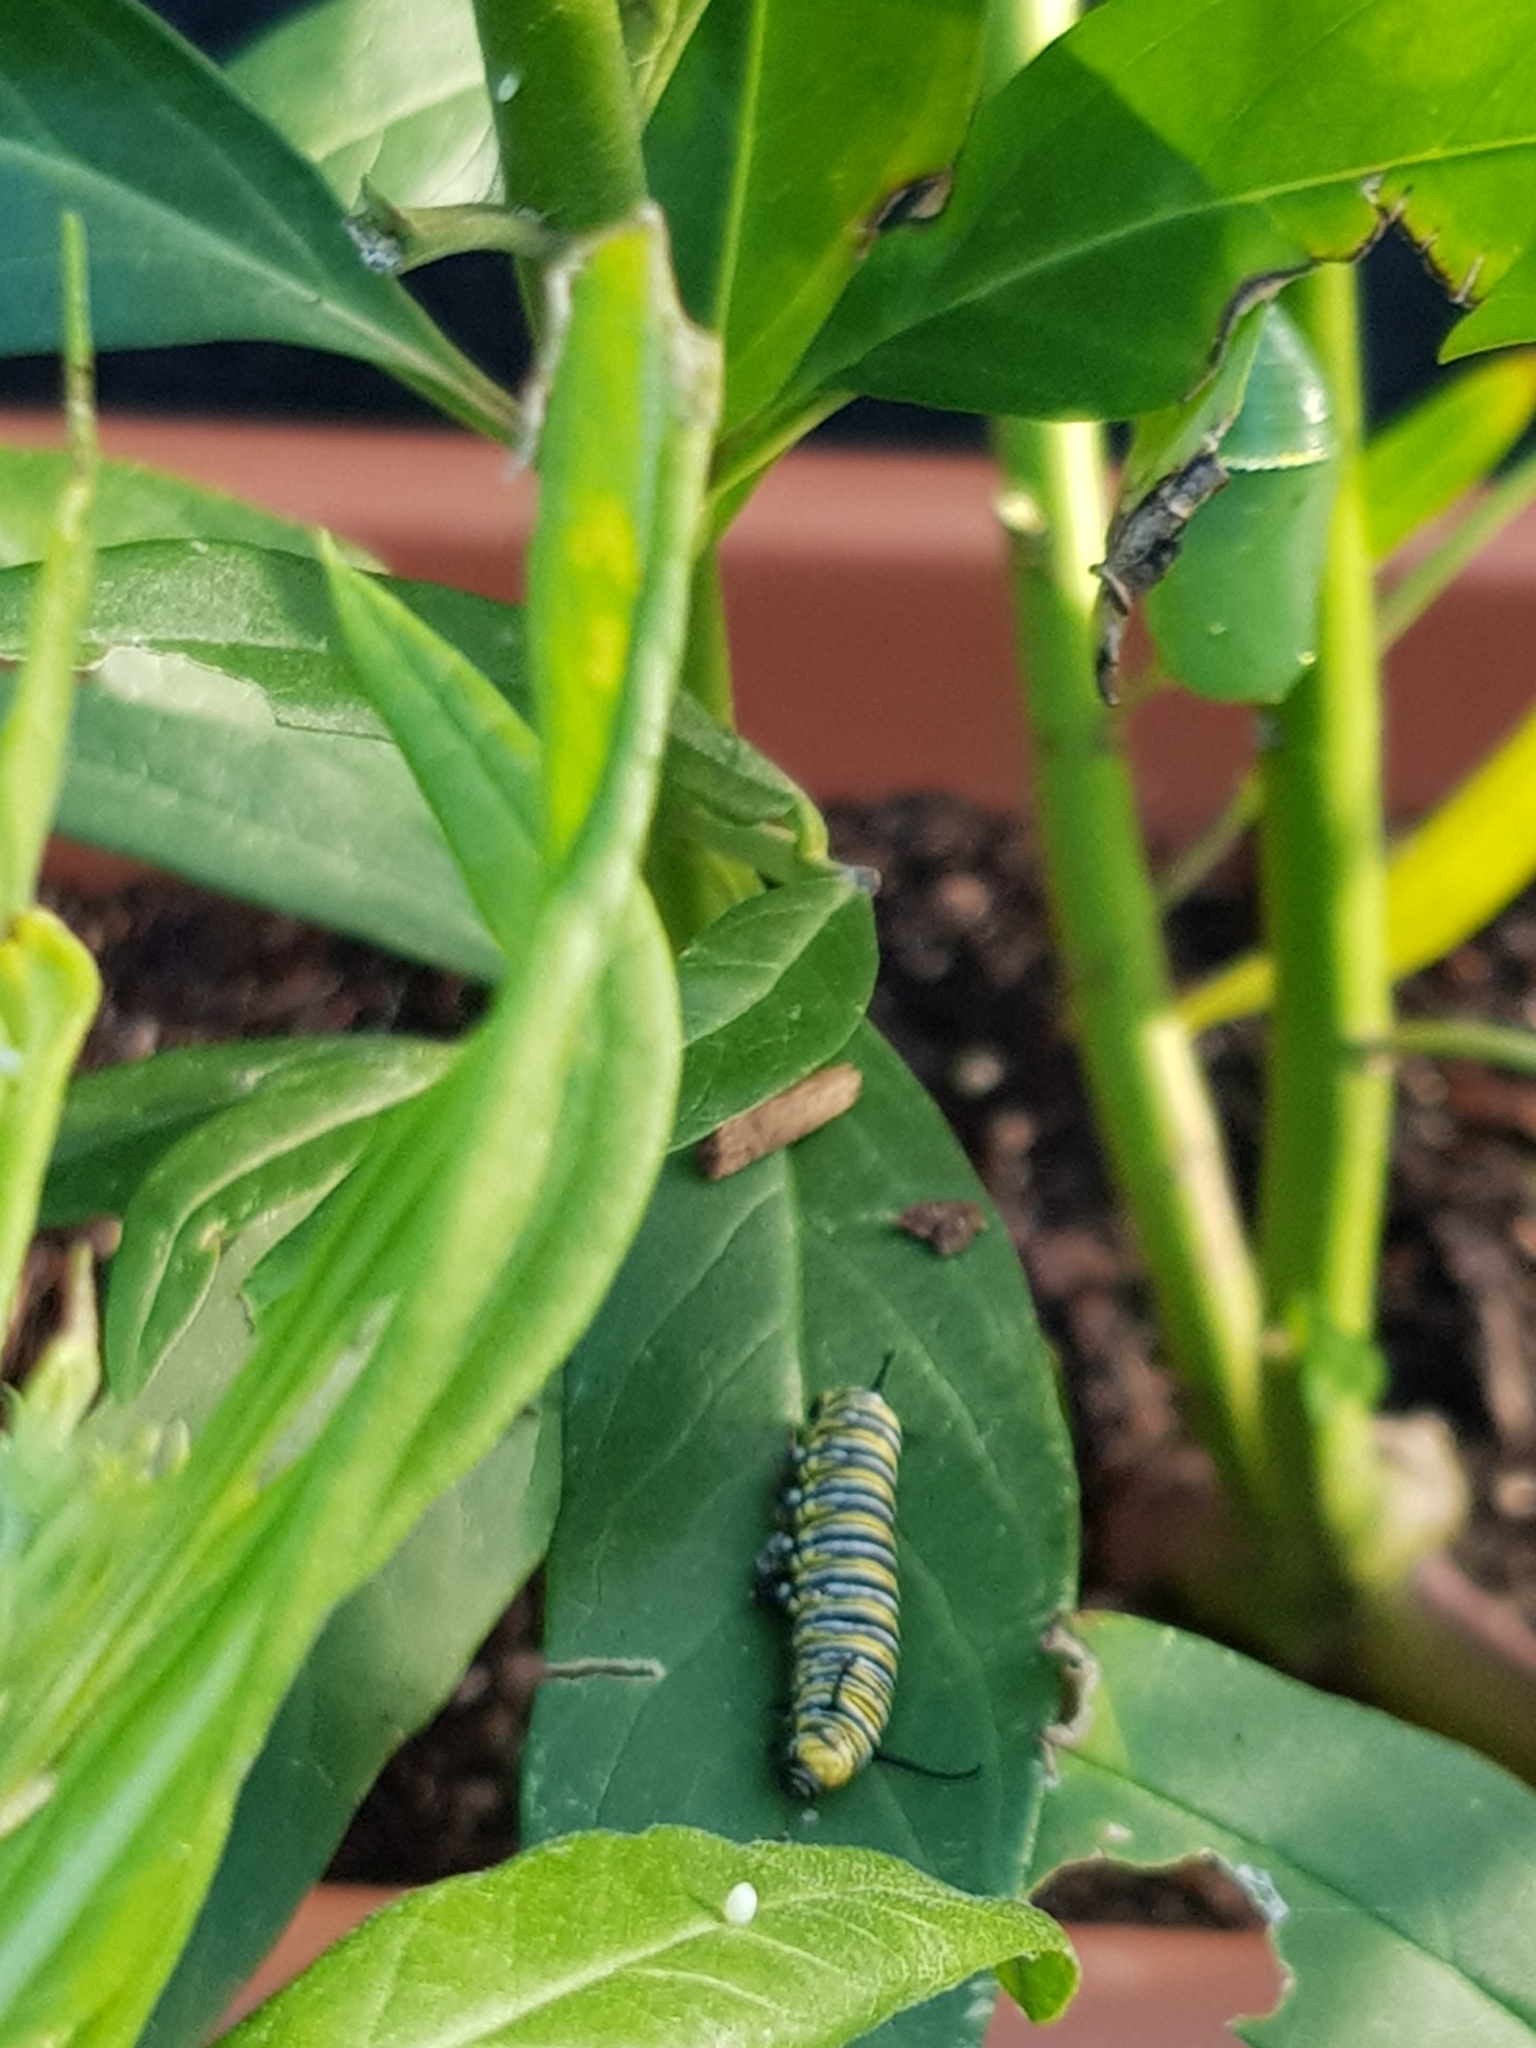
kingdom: Animalia
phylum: Arthropoda
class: Insecta
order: Lepidoptera
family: Nymphalidae
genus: Danaus
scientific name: Danaus plexippus
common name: Monarch
